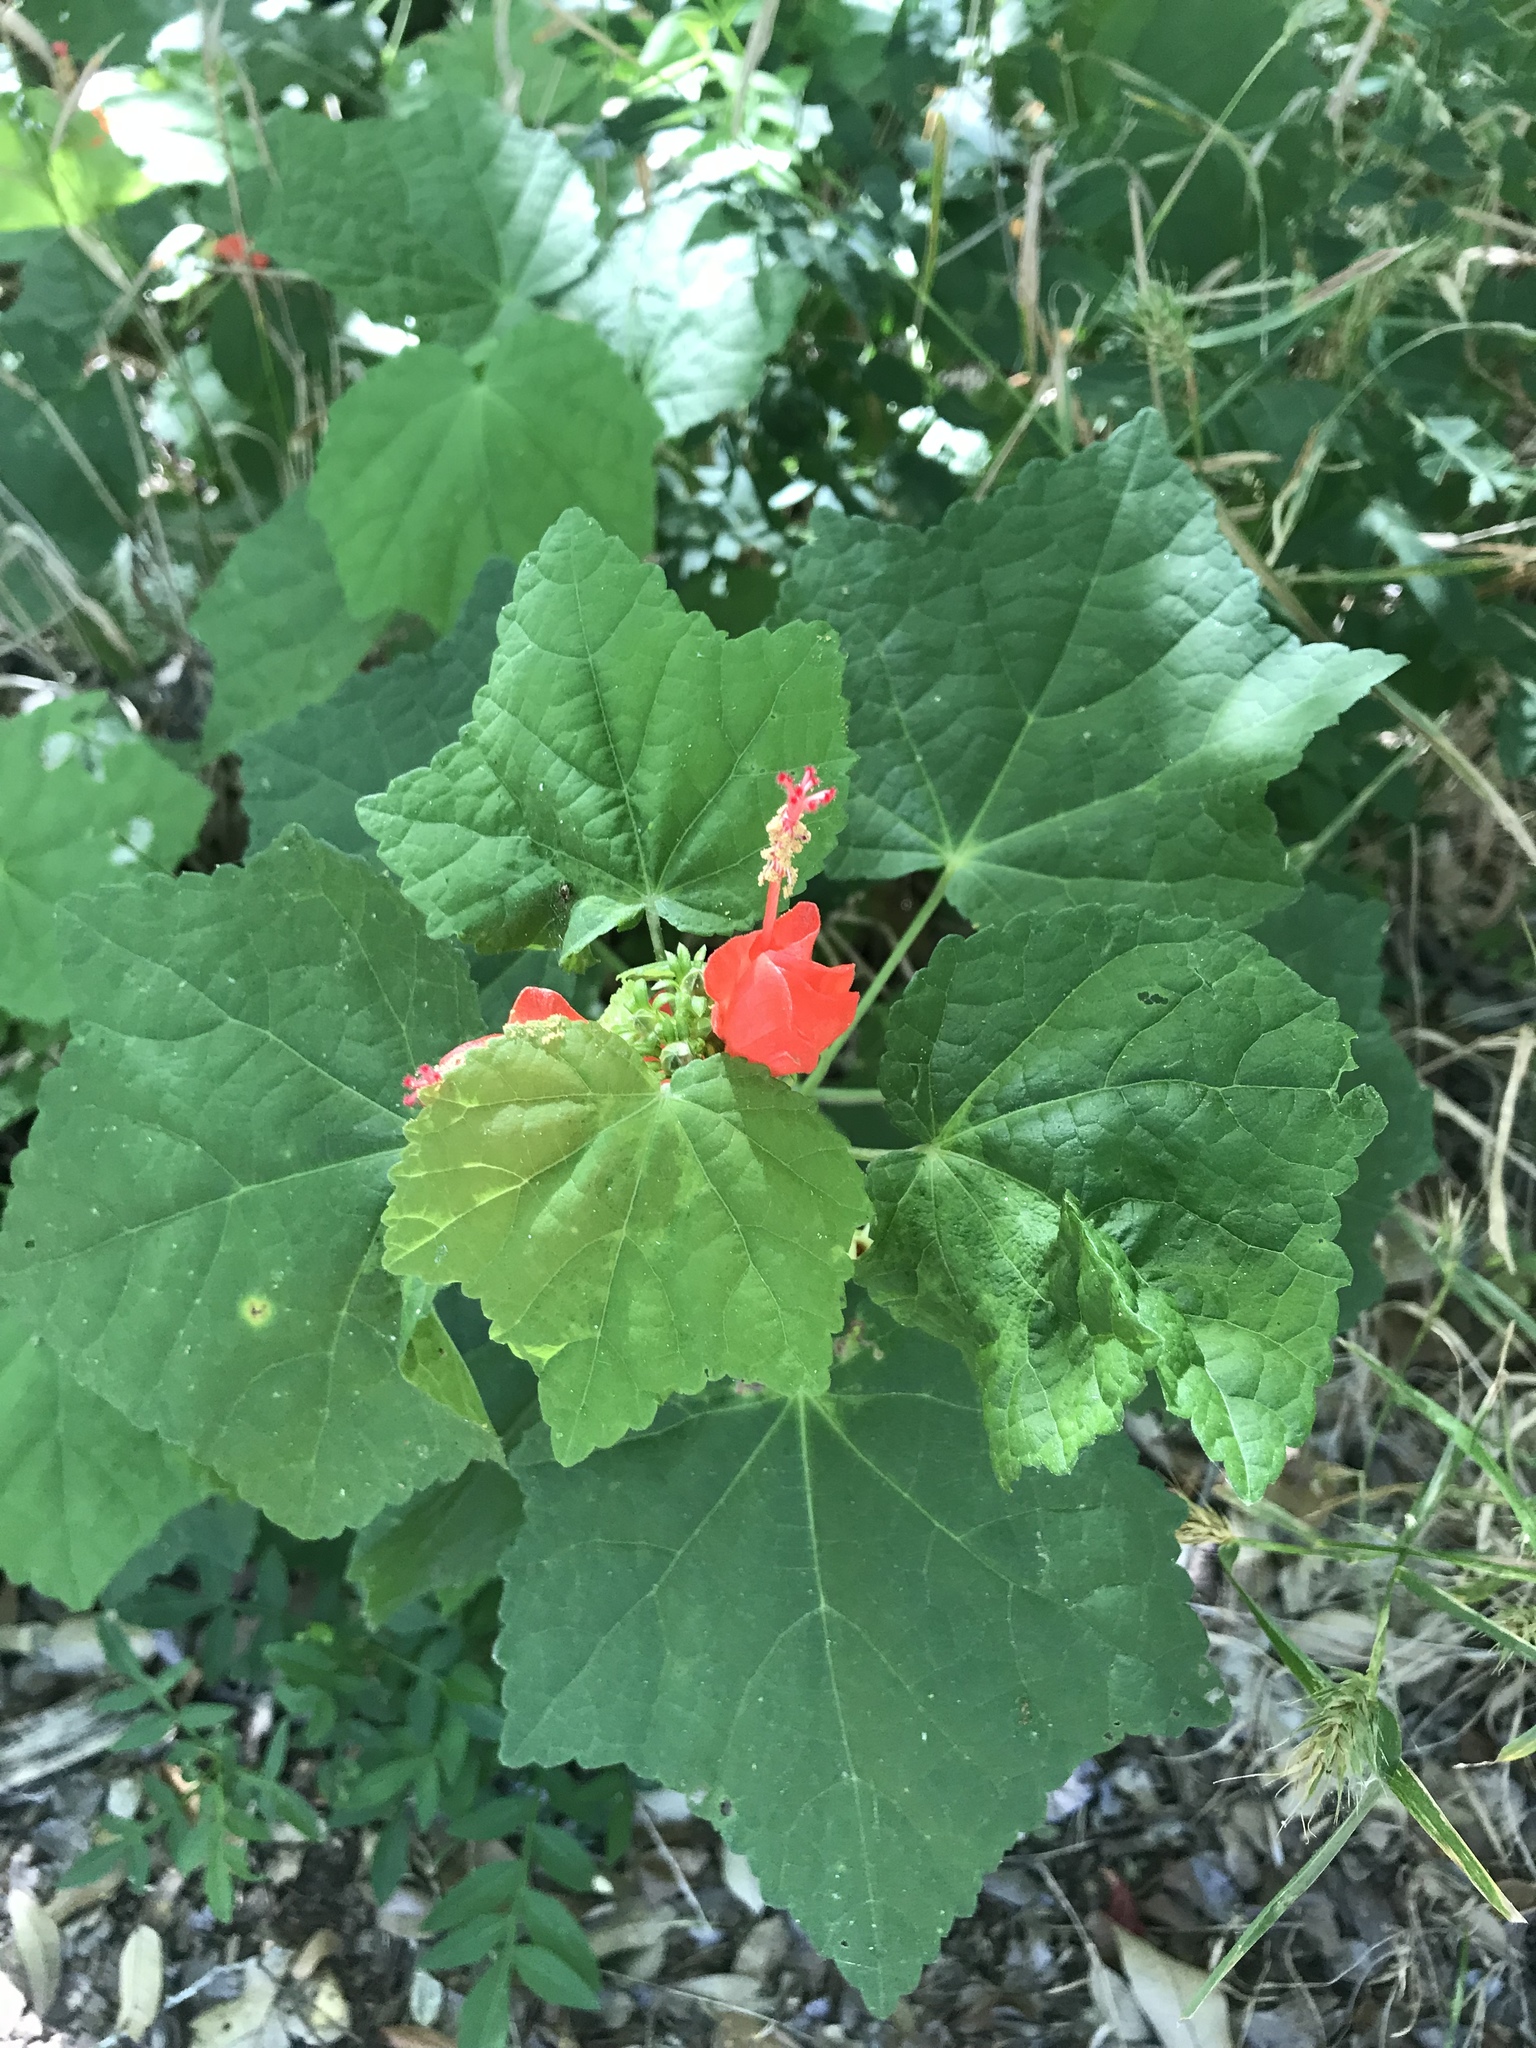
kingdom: Plantae
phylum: Tracheophyta
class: Magnoliopsida
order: Malvales
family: Malvaceae
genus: Malvaviscus
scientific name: Malvaviscus arboreus
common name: Wax mallow
